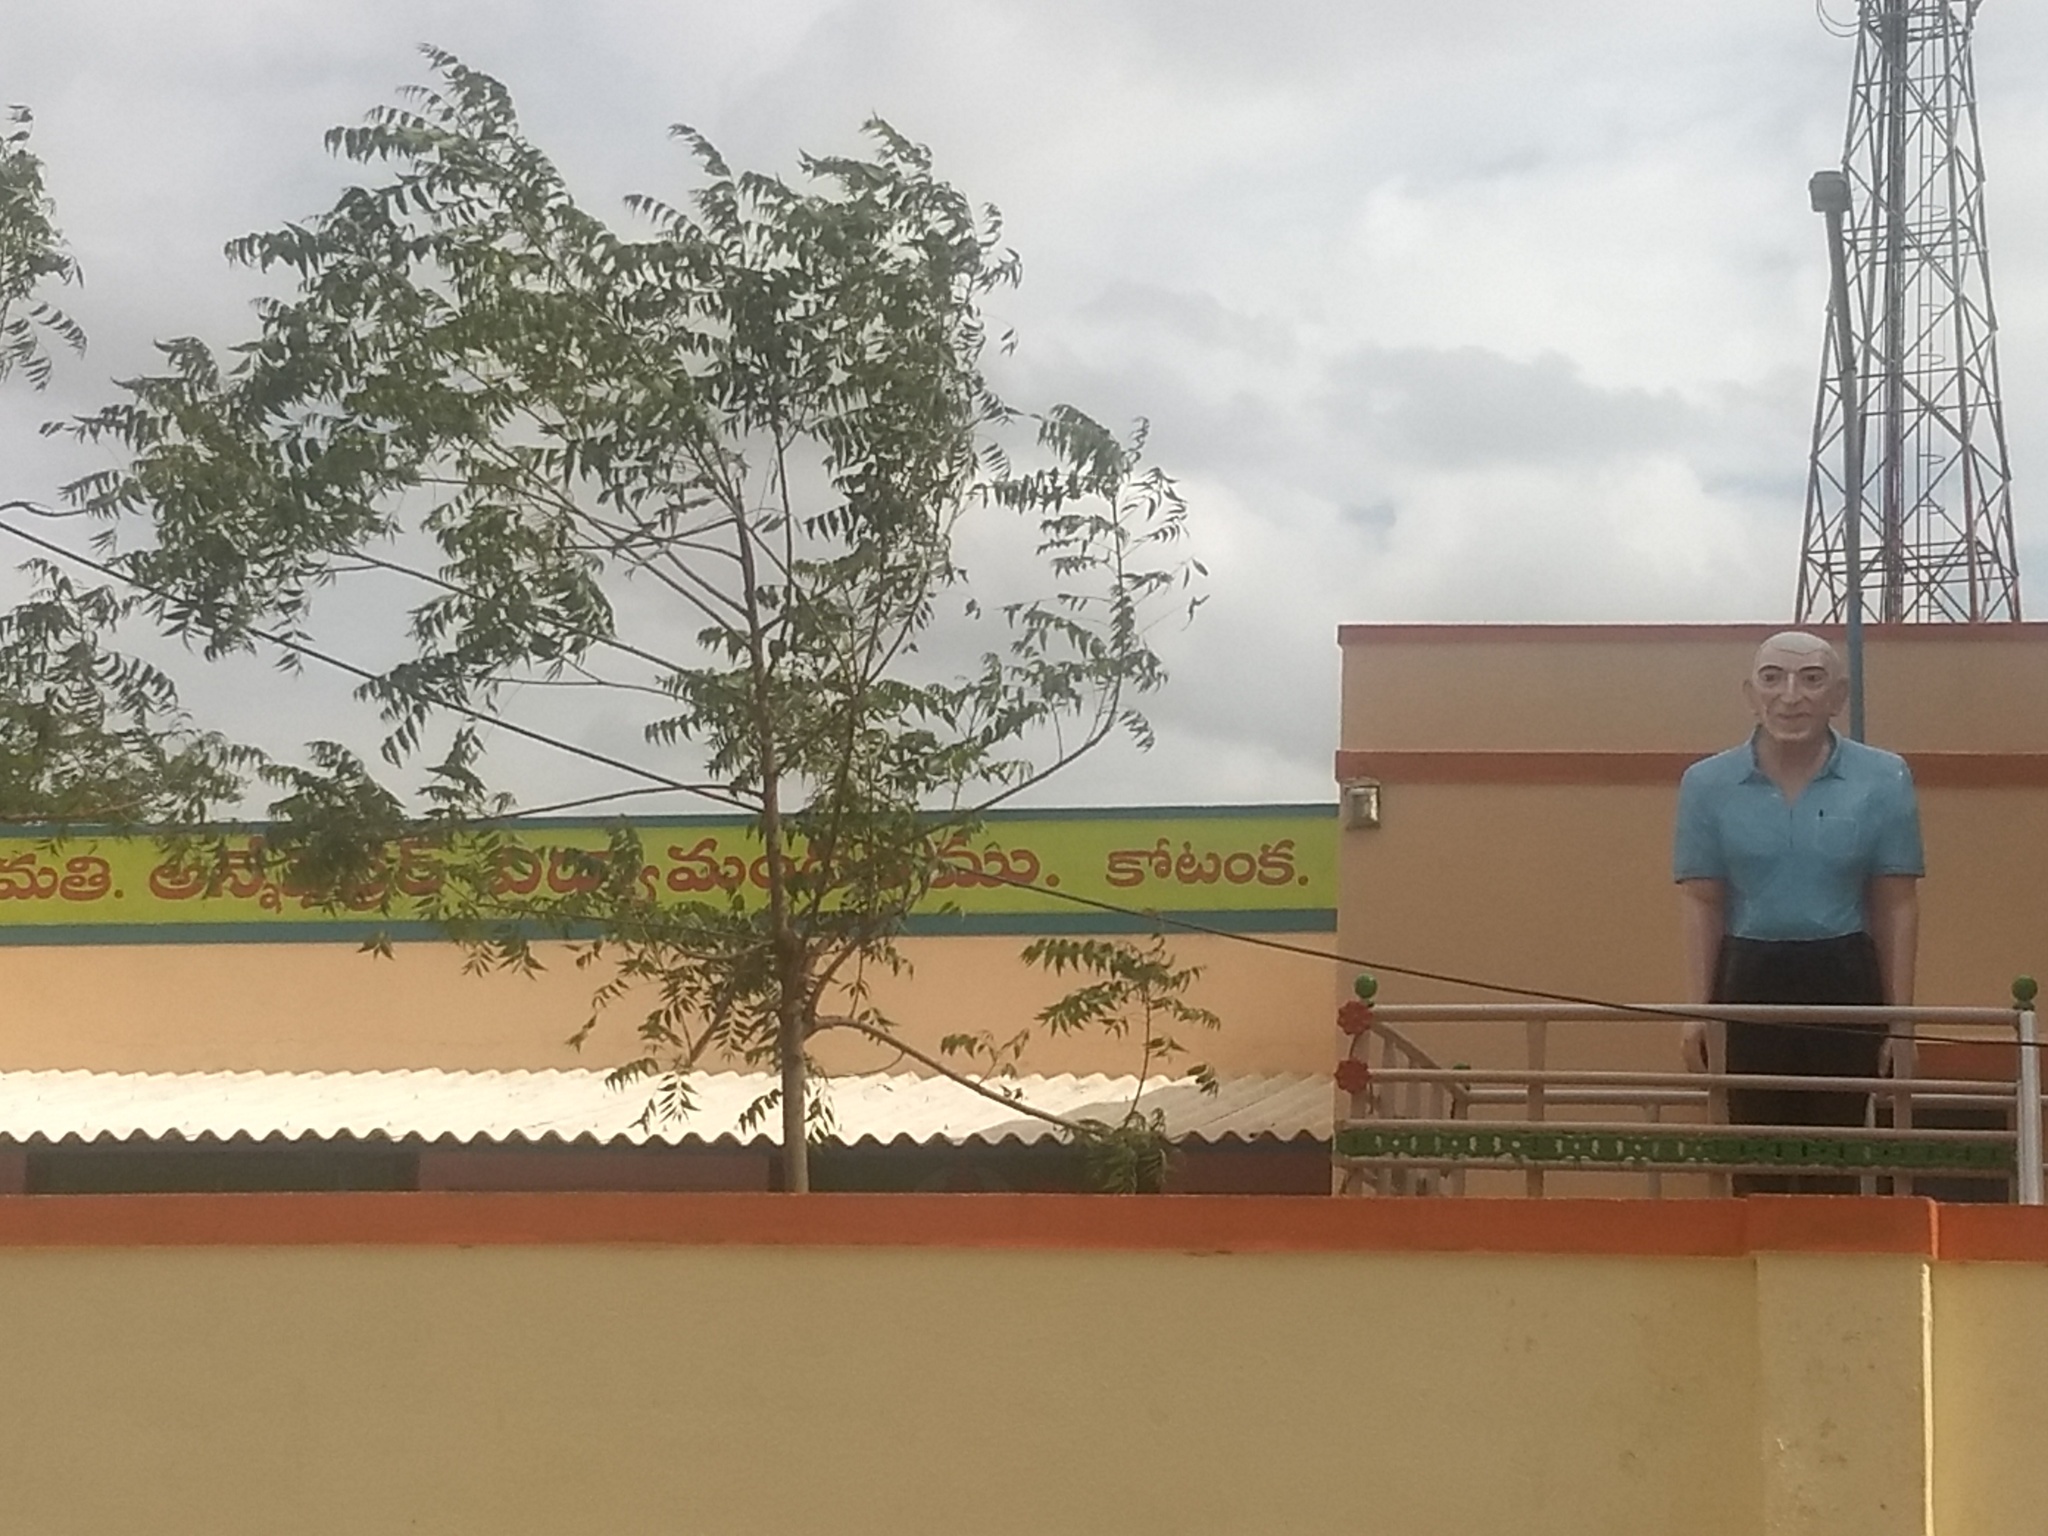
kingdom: Plantae
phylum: Tracheophyta
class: Magnoliopsida
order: Sapindales
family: Meliaceae
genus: Azadirachta
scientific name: Azadirachta indica
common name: Neem
